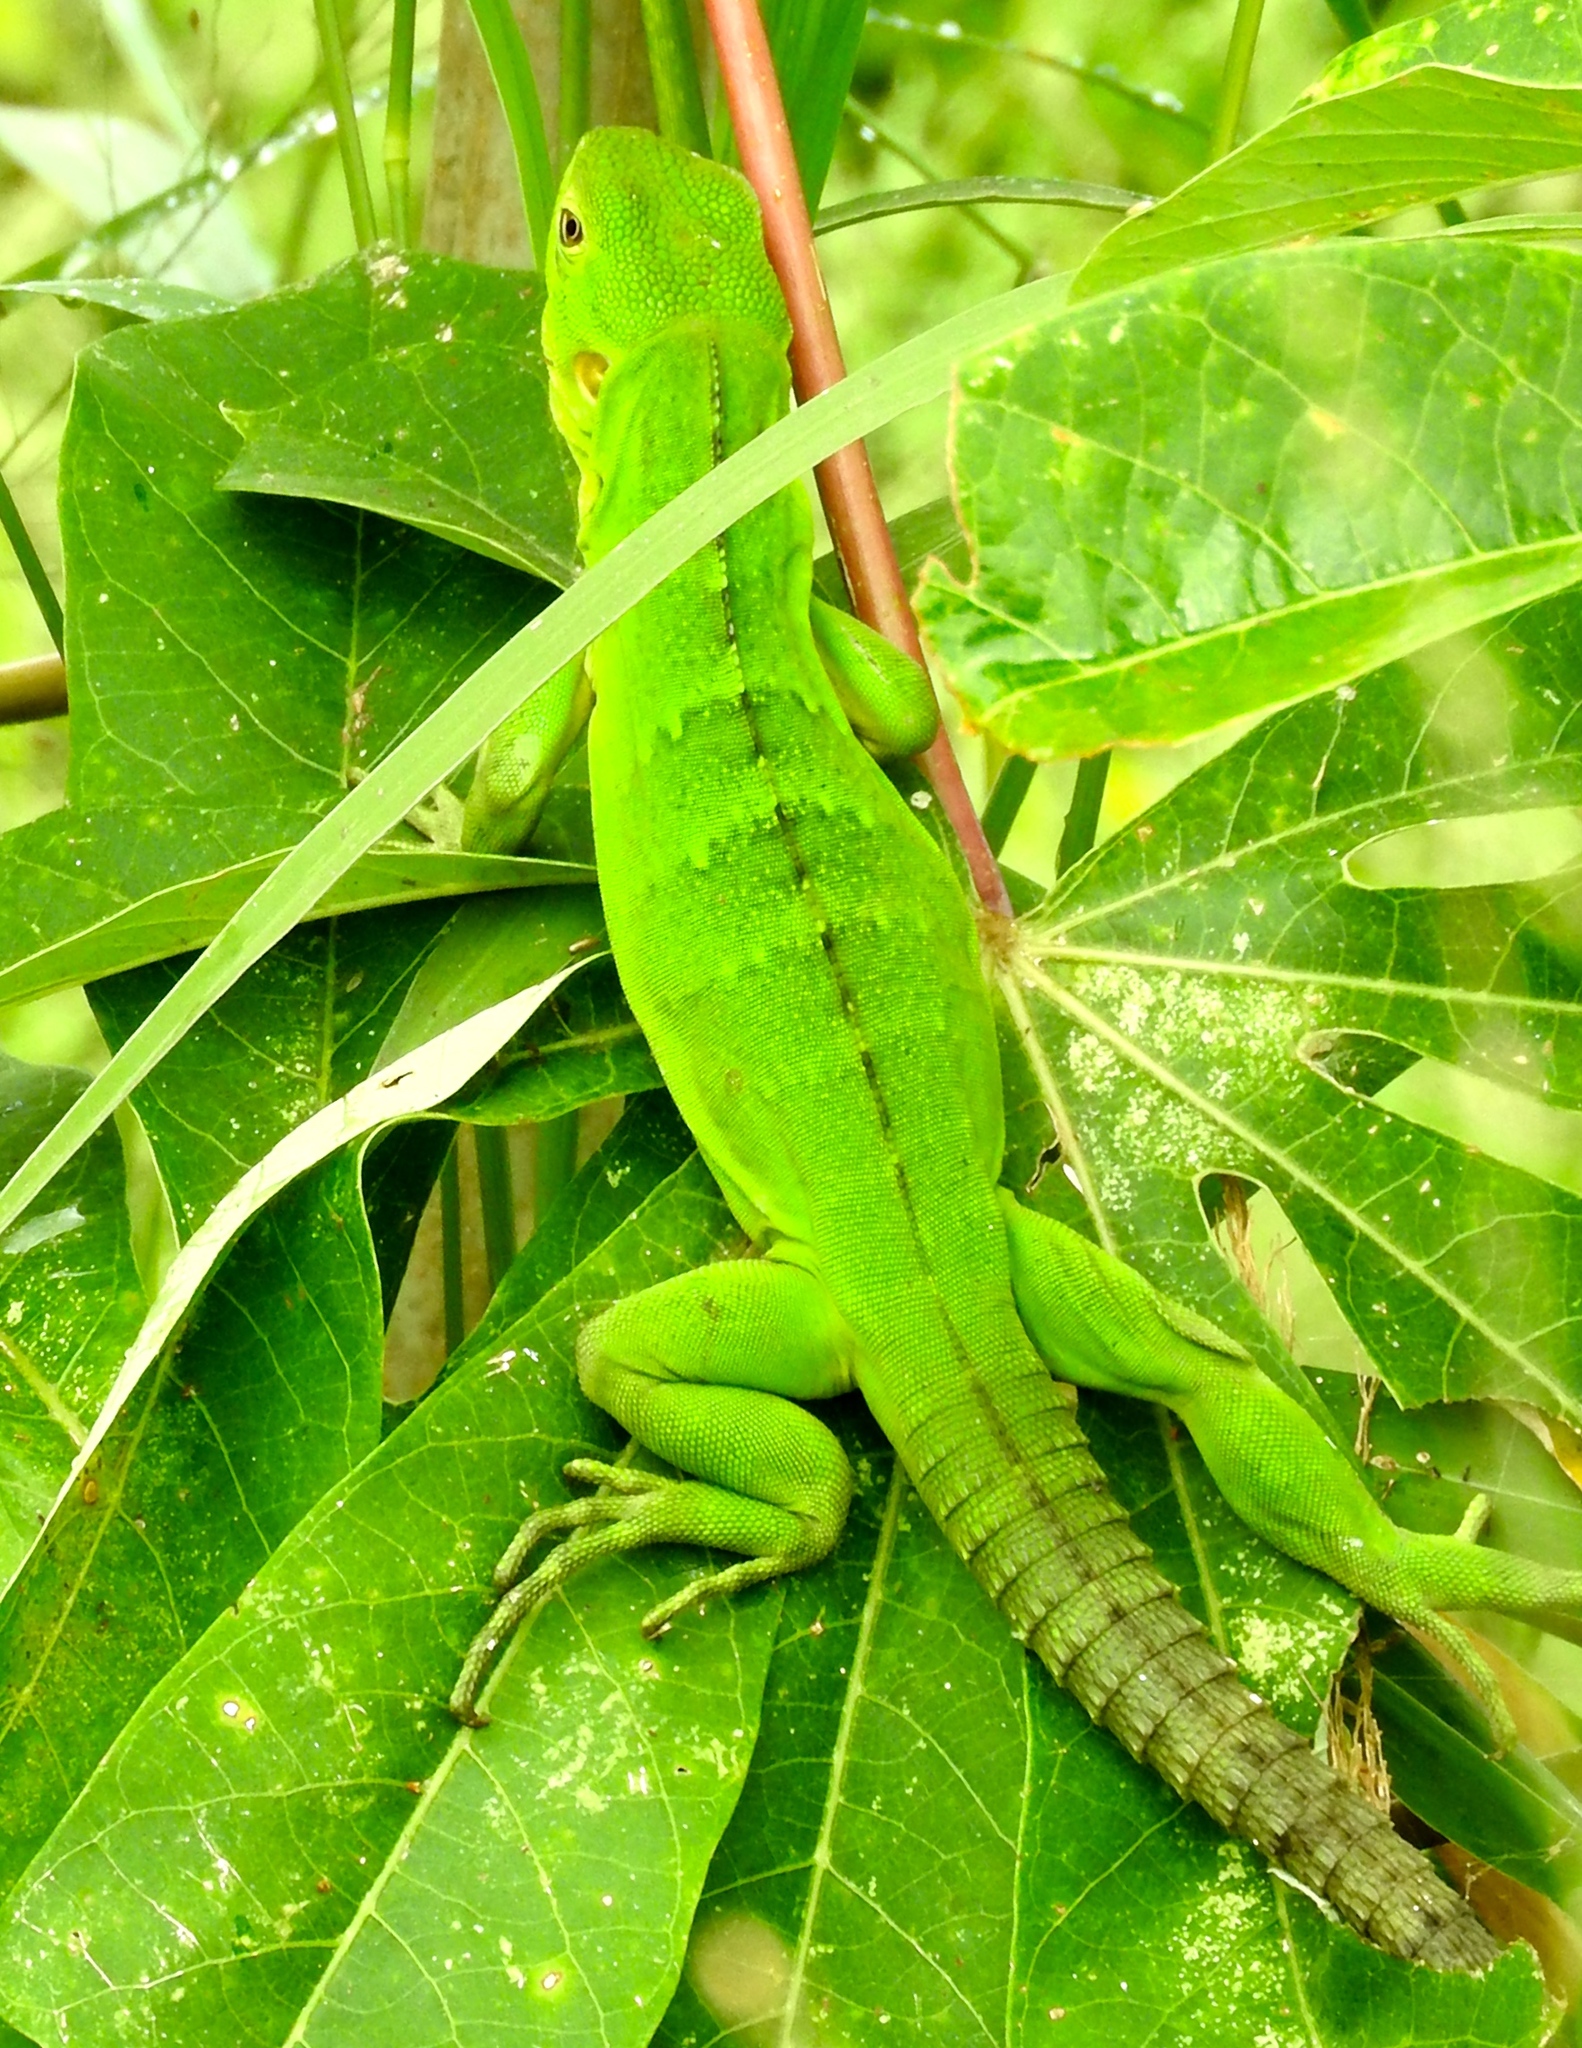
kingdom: Animalia
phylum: Chordata
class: Squamata
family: Iguanidae
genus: Ctenosaura
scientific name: Ctenosaura pectinata
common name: Guerreran spiny-tailed iguana
